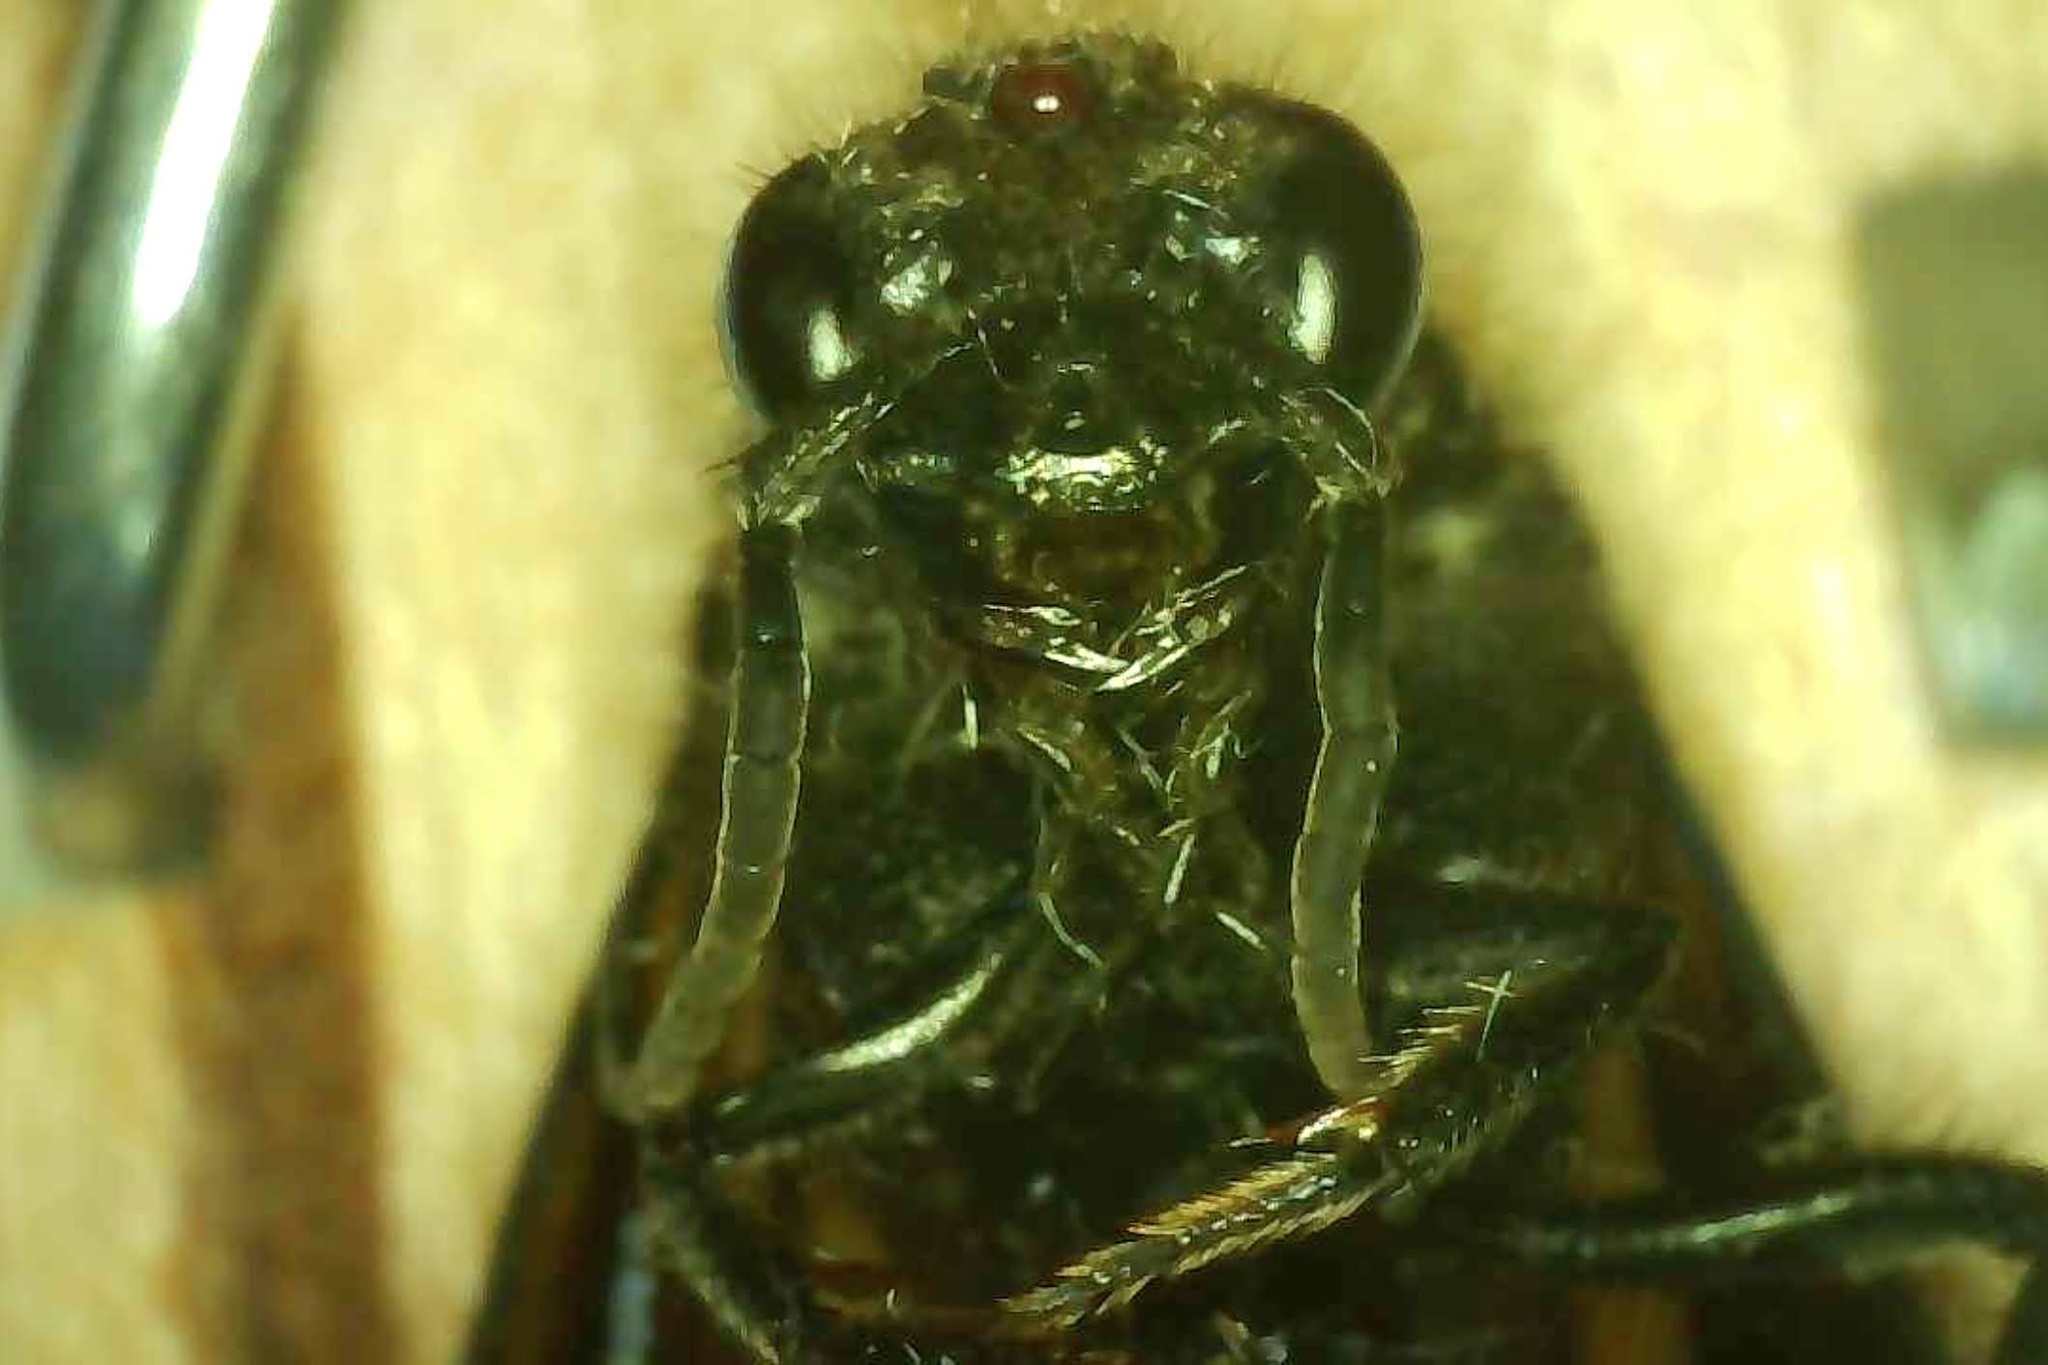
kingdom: Animalia
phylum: Arthropoda
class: Insecta
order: Hymenoptera
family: Mutillidae
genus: Timulla
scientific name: Timulla
